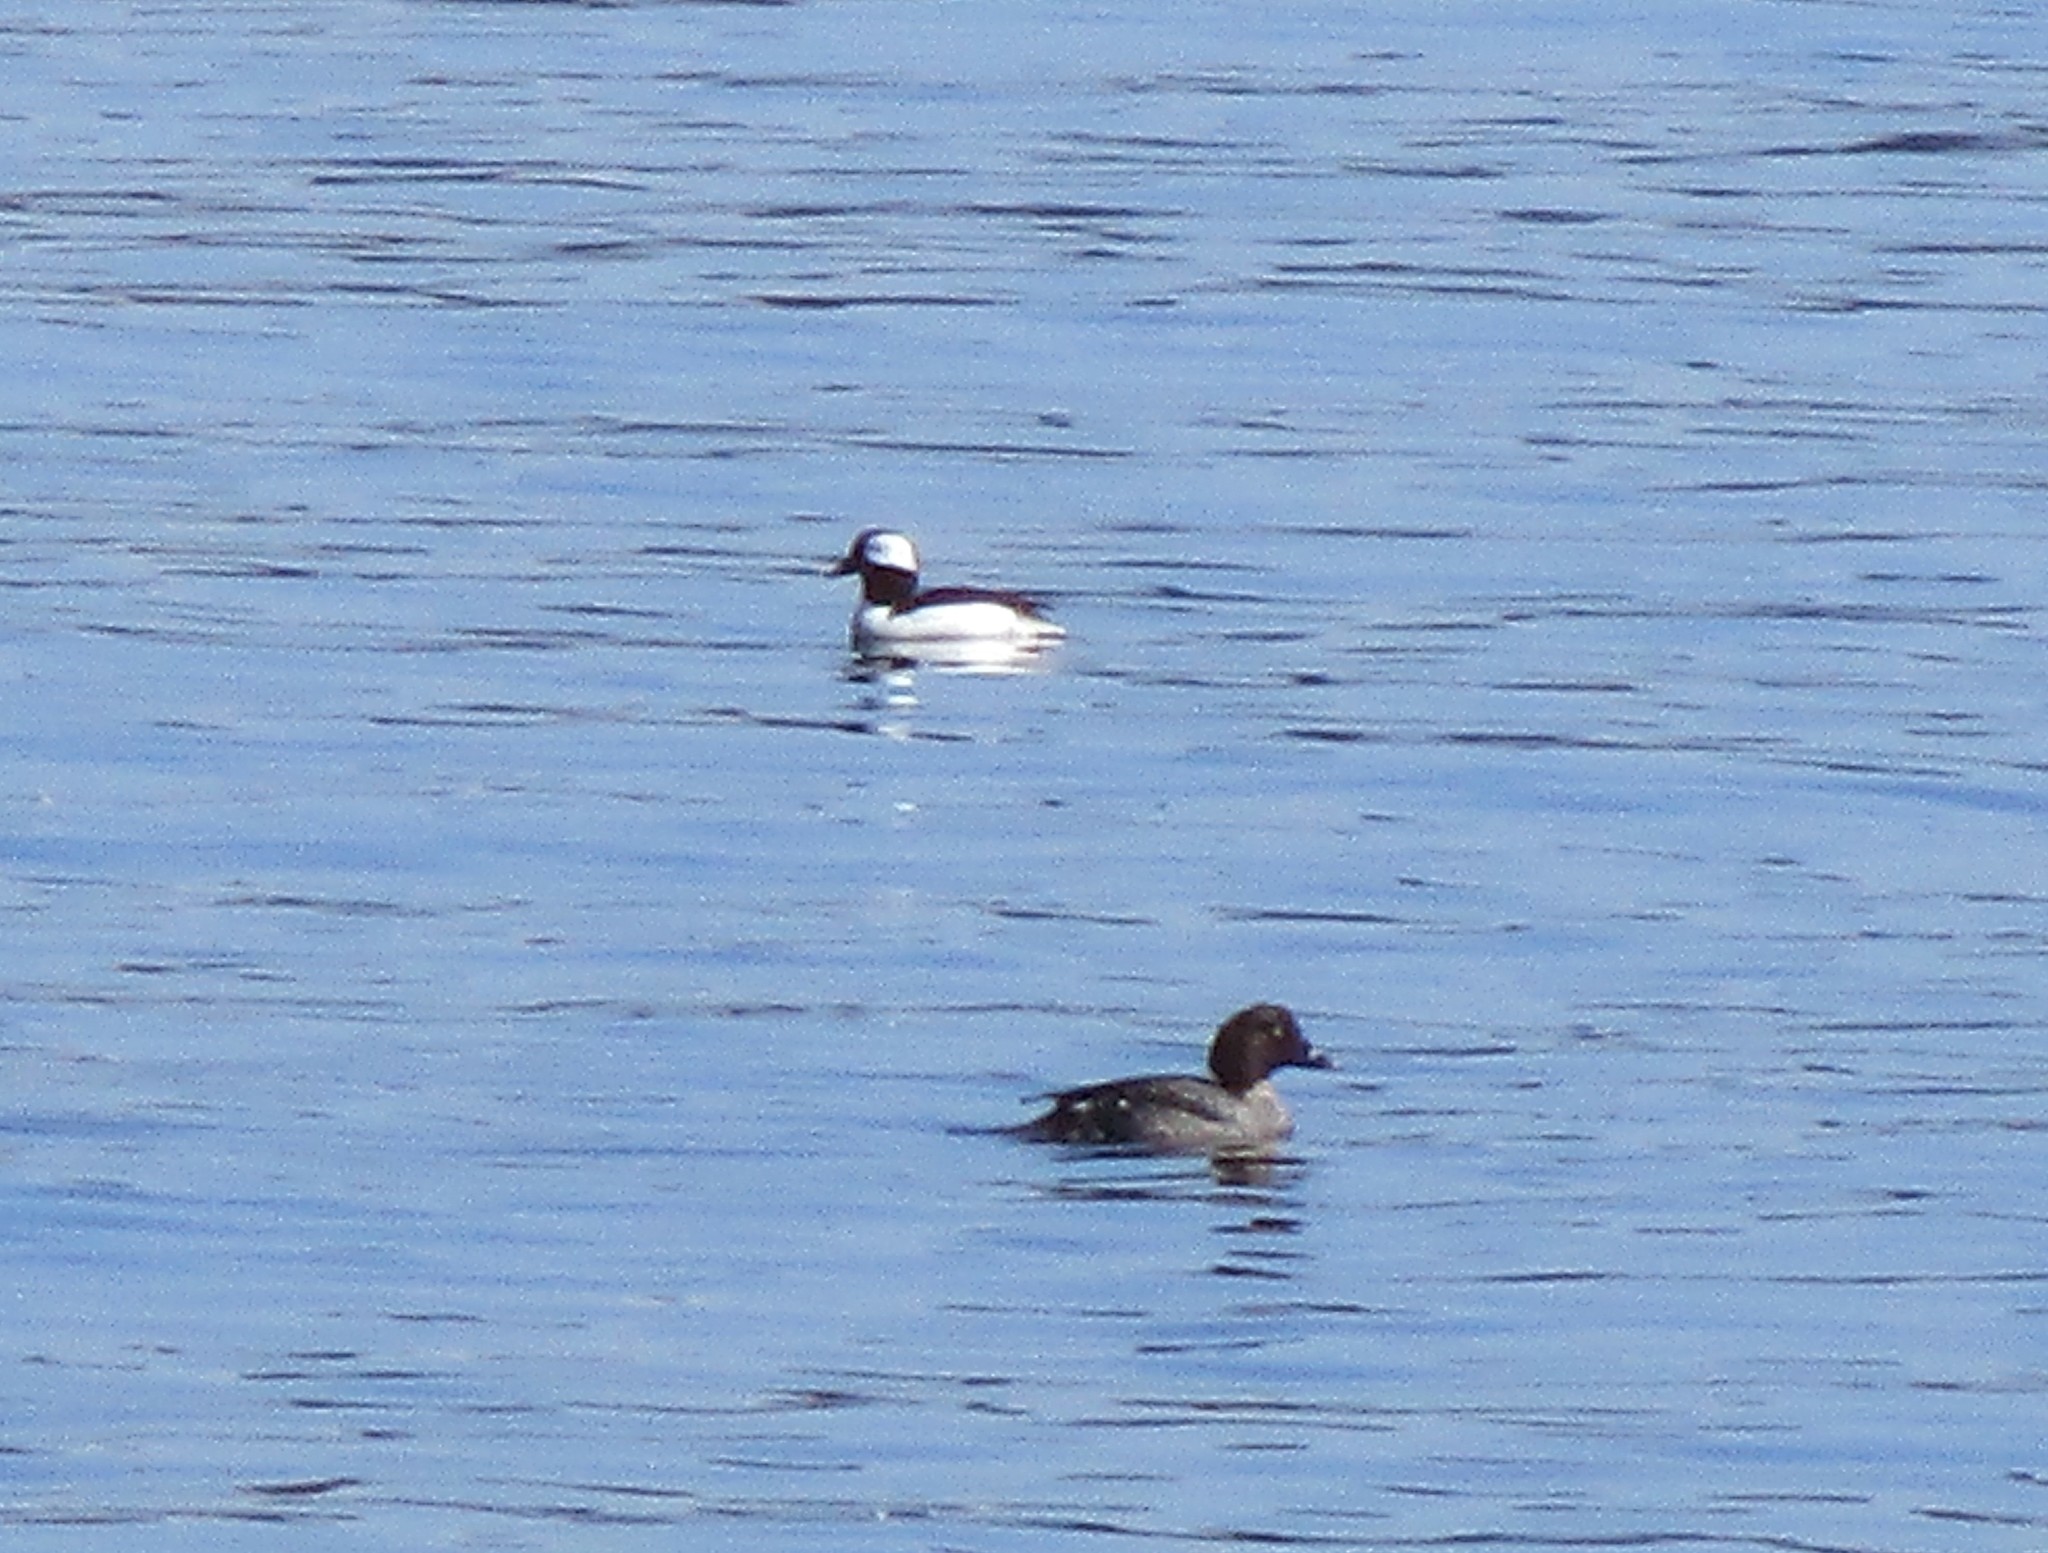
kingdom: Animalia
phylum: Chordata
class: Aves
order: Anseriformes
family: Anatidae
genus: Bucephala
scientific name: Bucephala albeola
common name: Bufflehead
